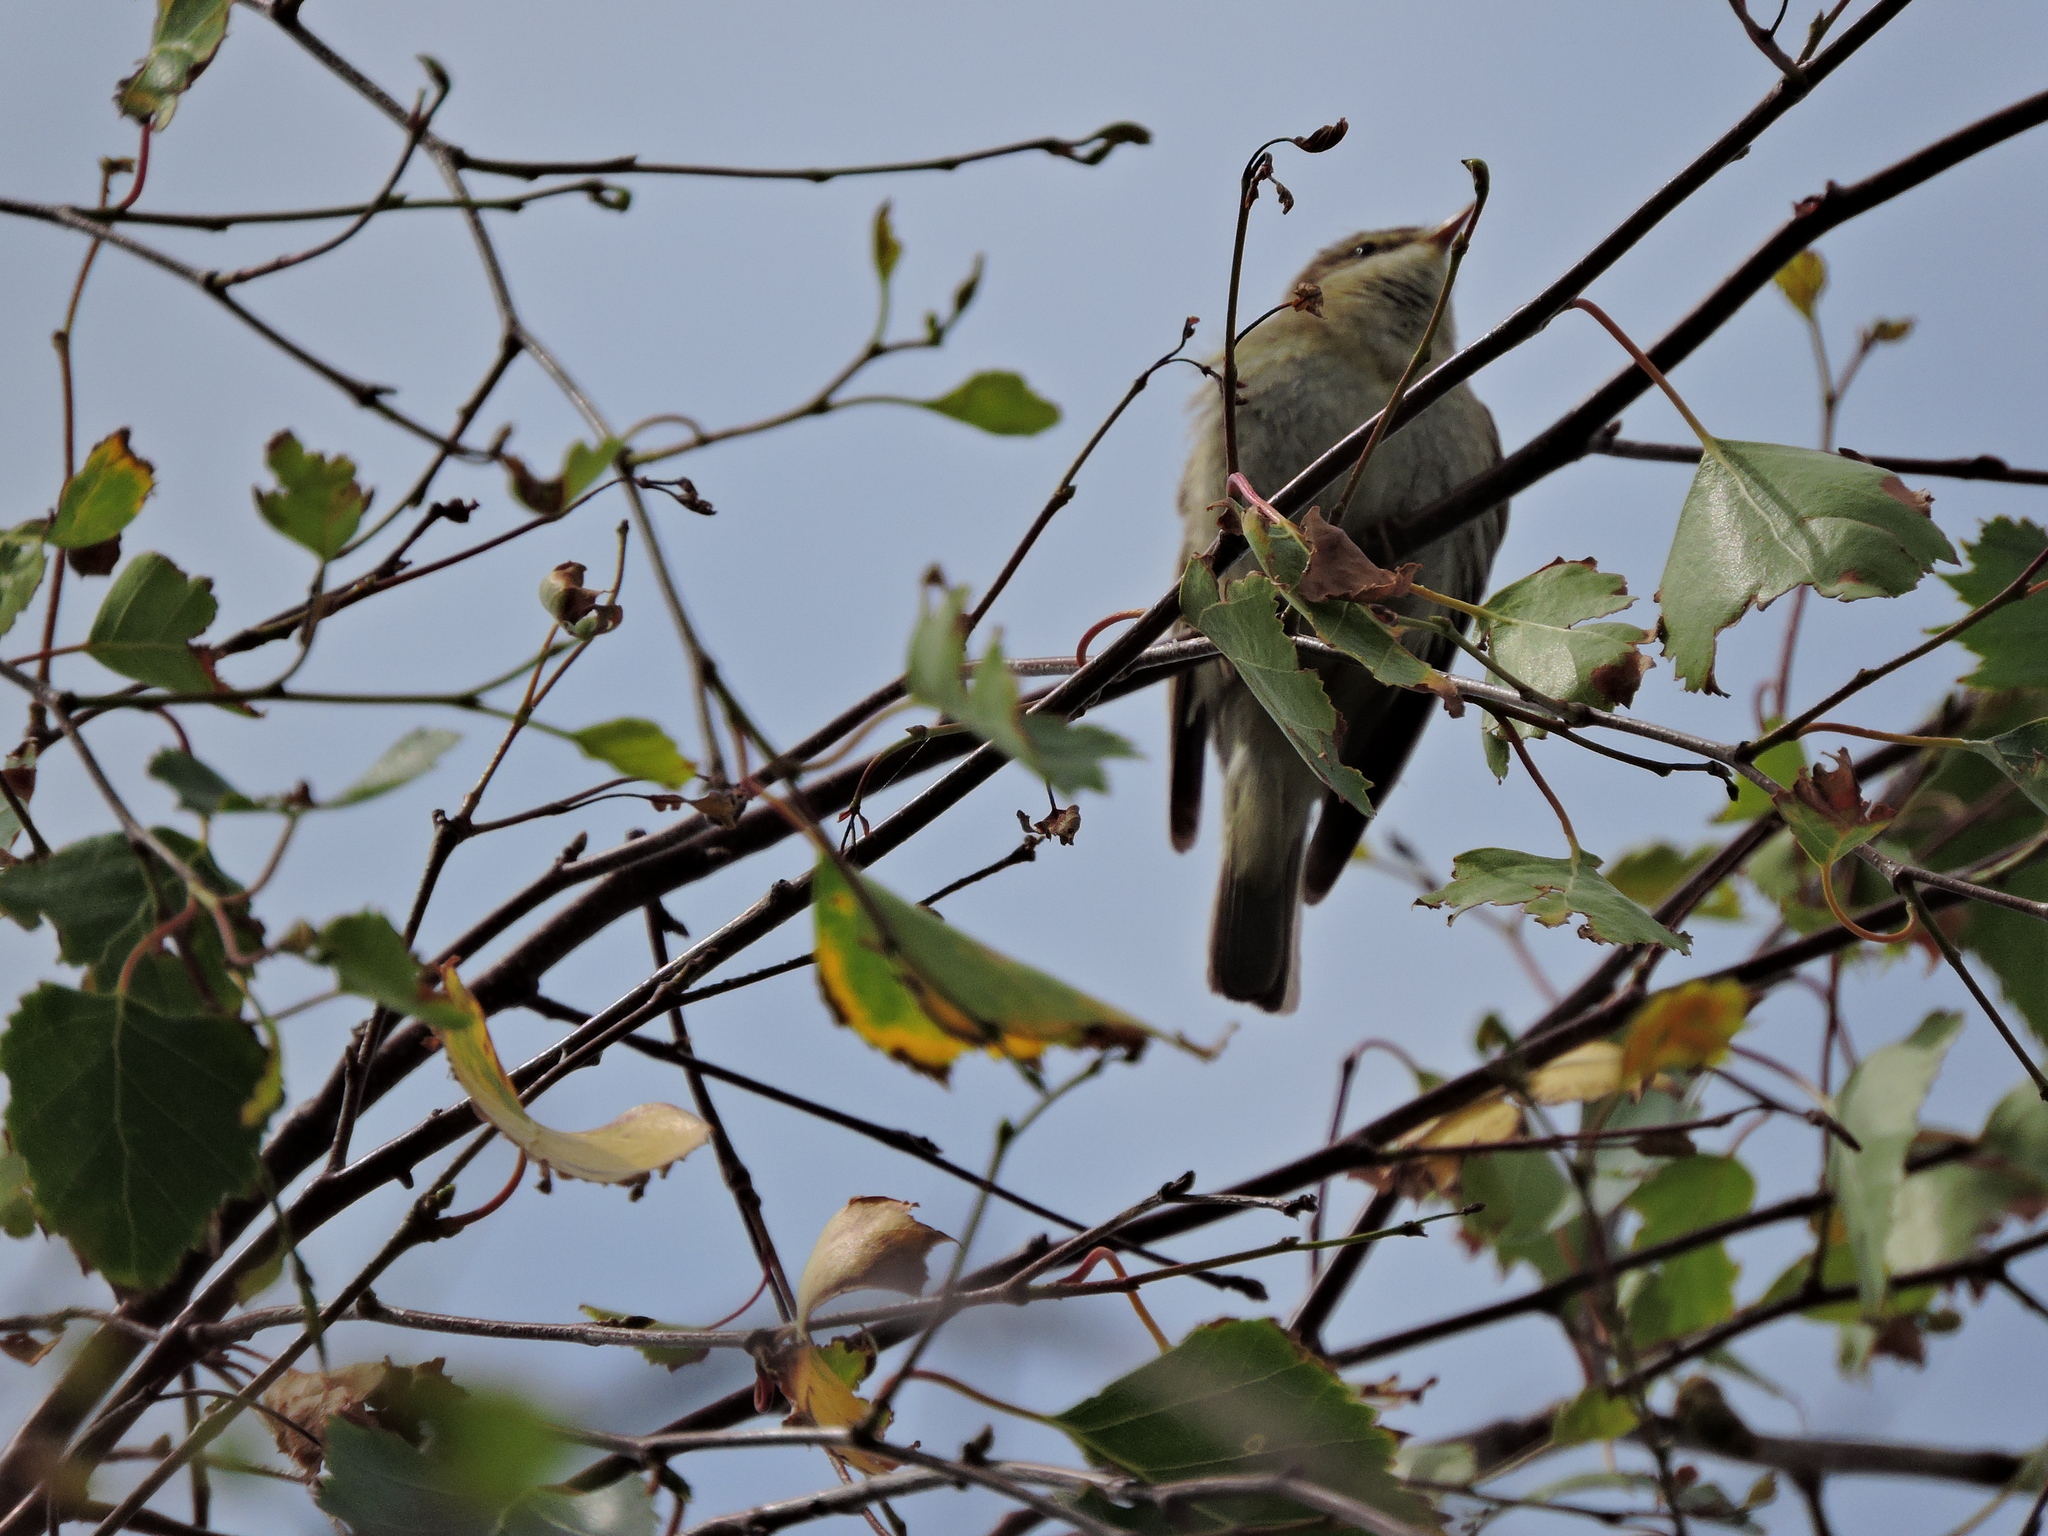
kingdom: Animalia
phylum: Chordata
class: Aves
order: Passeriformes
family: Phylloscopidae
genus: Phylloscopus
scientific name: Phylloscopus trochilus
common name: Willow warbler
